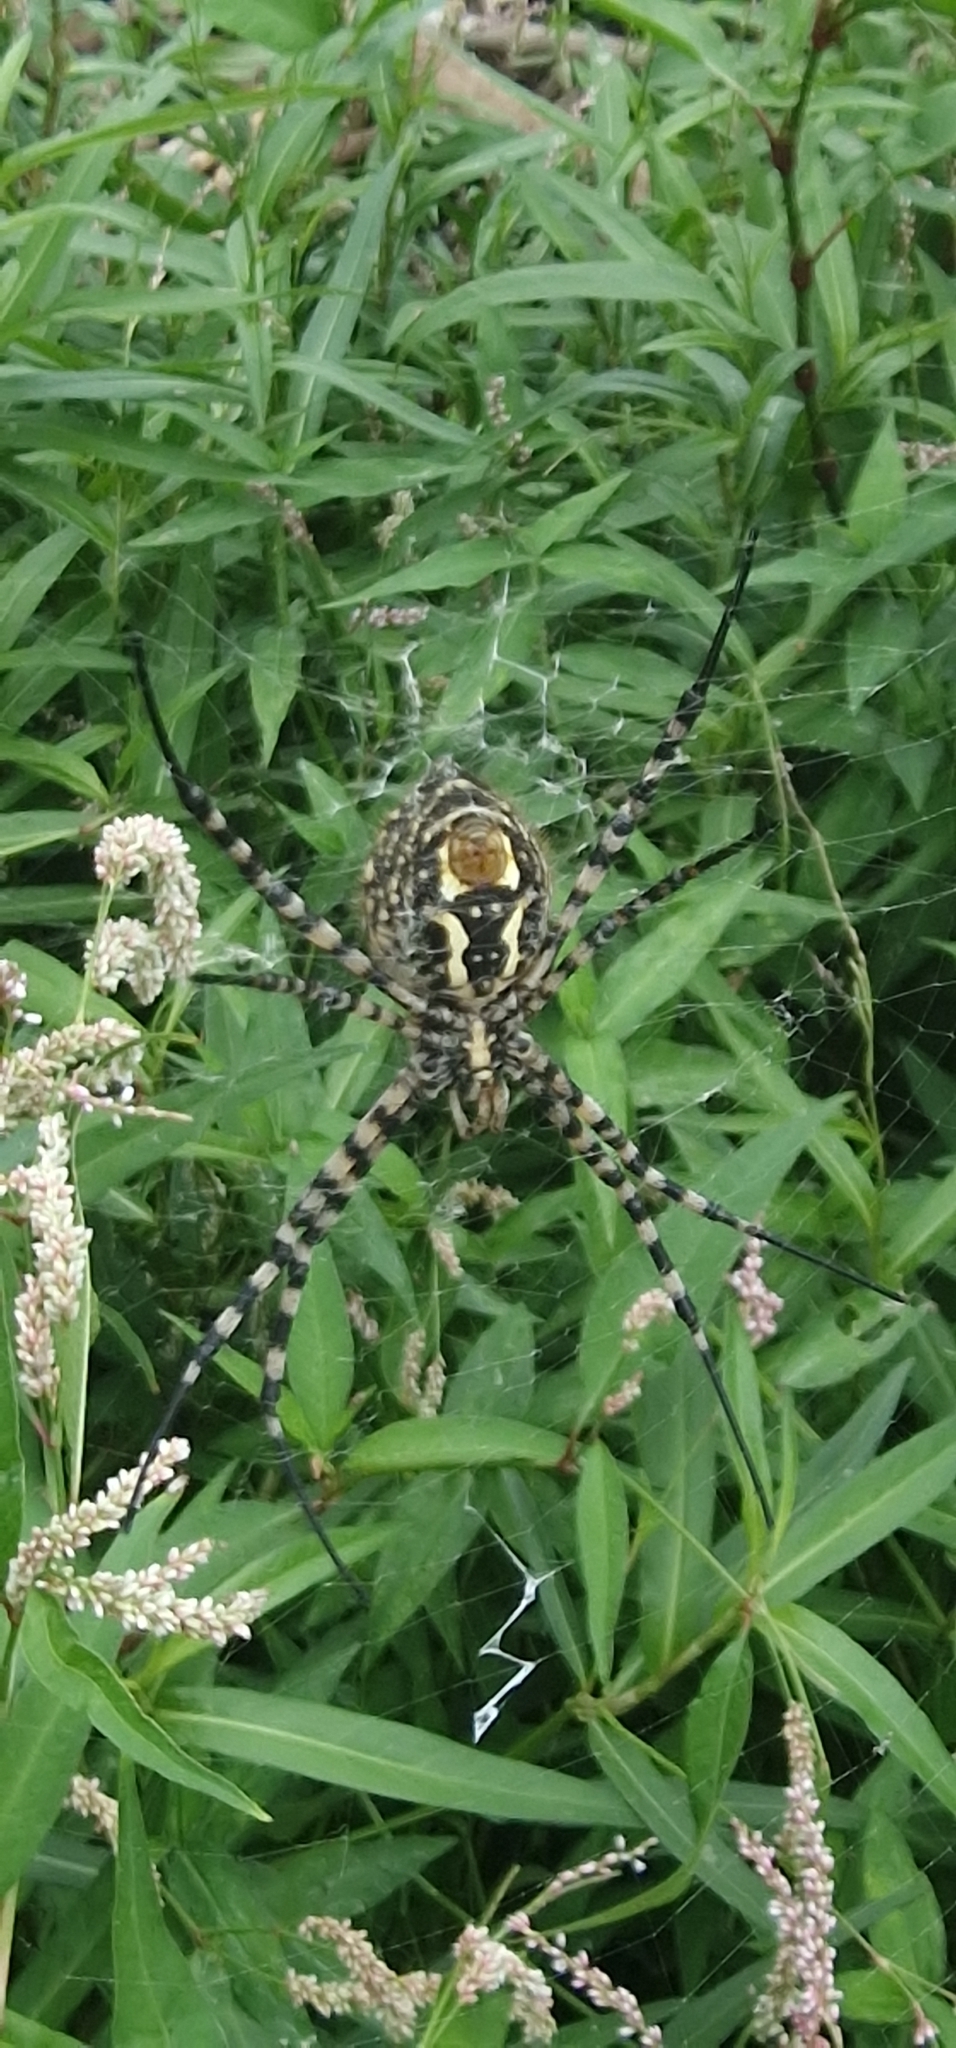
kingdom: Animalia
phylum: Arthropoda
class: Arachnida
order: Araneae
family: Araneidae
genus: Argiope
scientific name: Argiope trifasciata
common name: Banded garden spider
